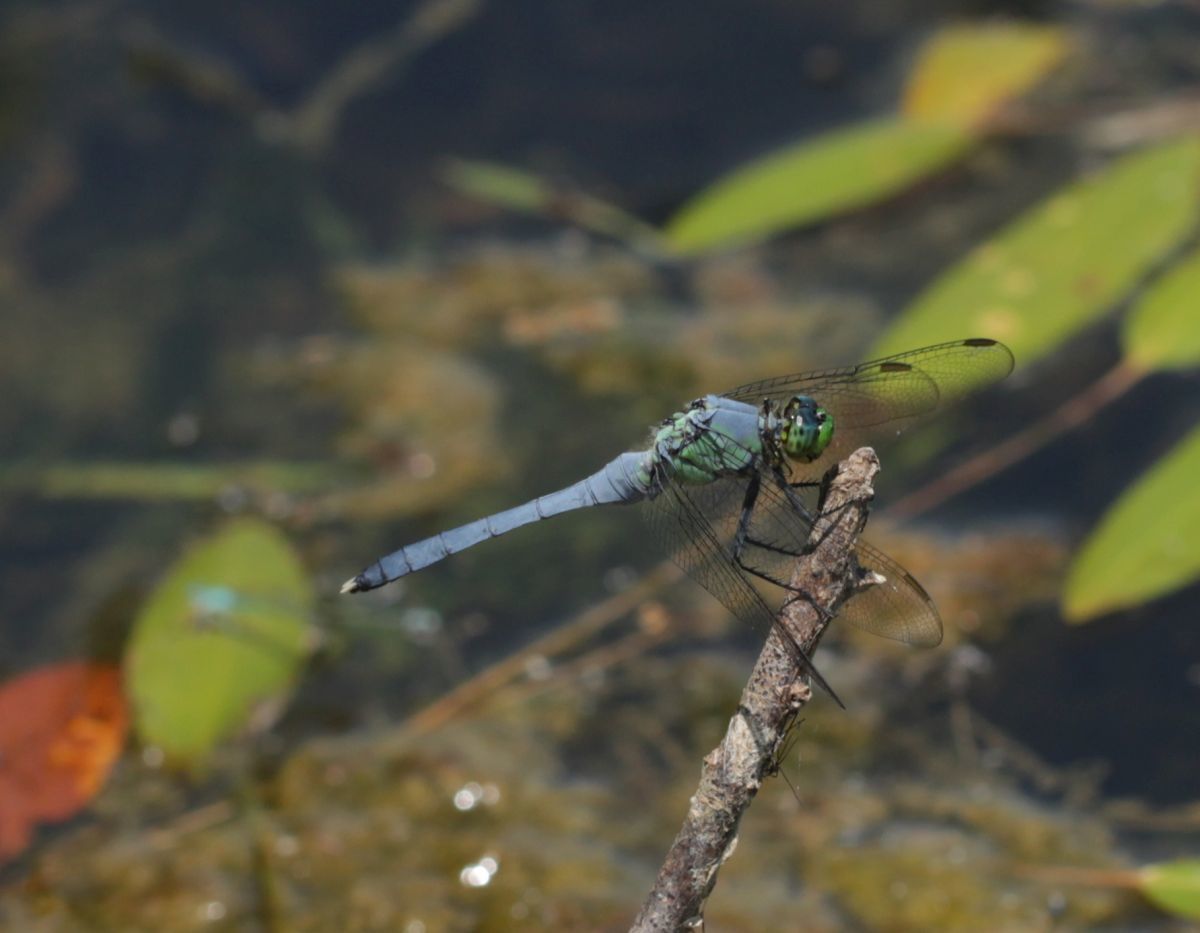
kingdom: Animalia
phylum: Arthropoda
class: Insecta
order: Odonata
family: Libellulidae
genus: Erythemis
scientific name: Erythemis simplicicollis
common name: Eastern pondhawk
